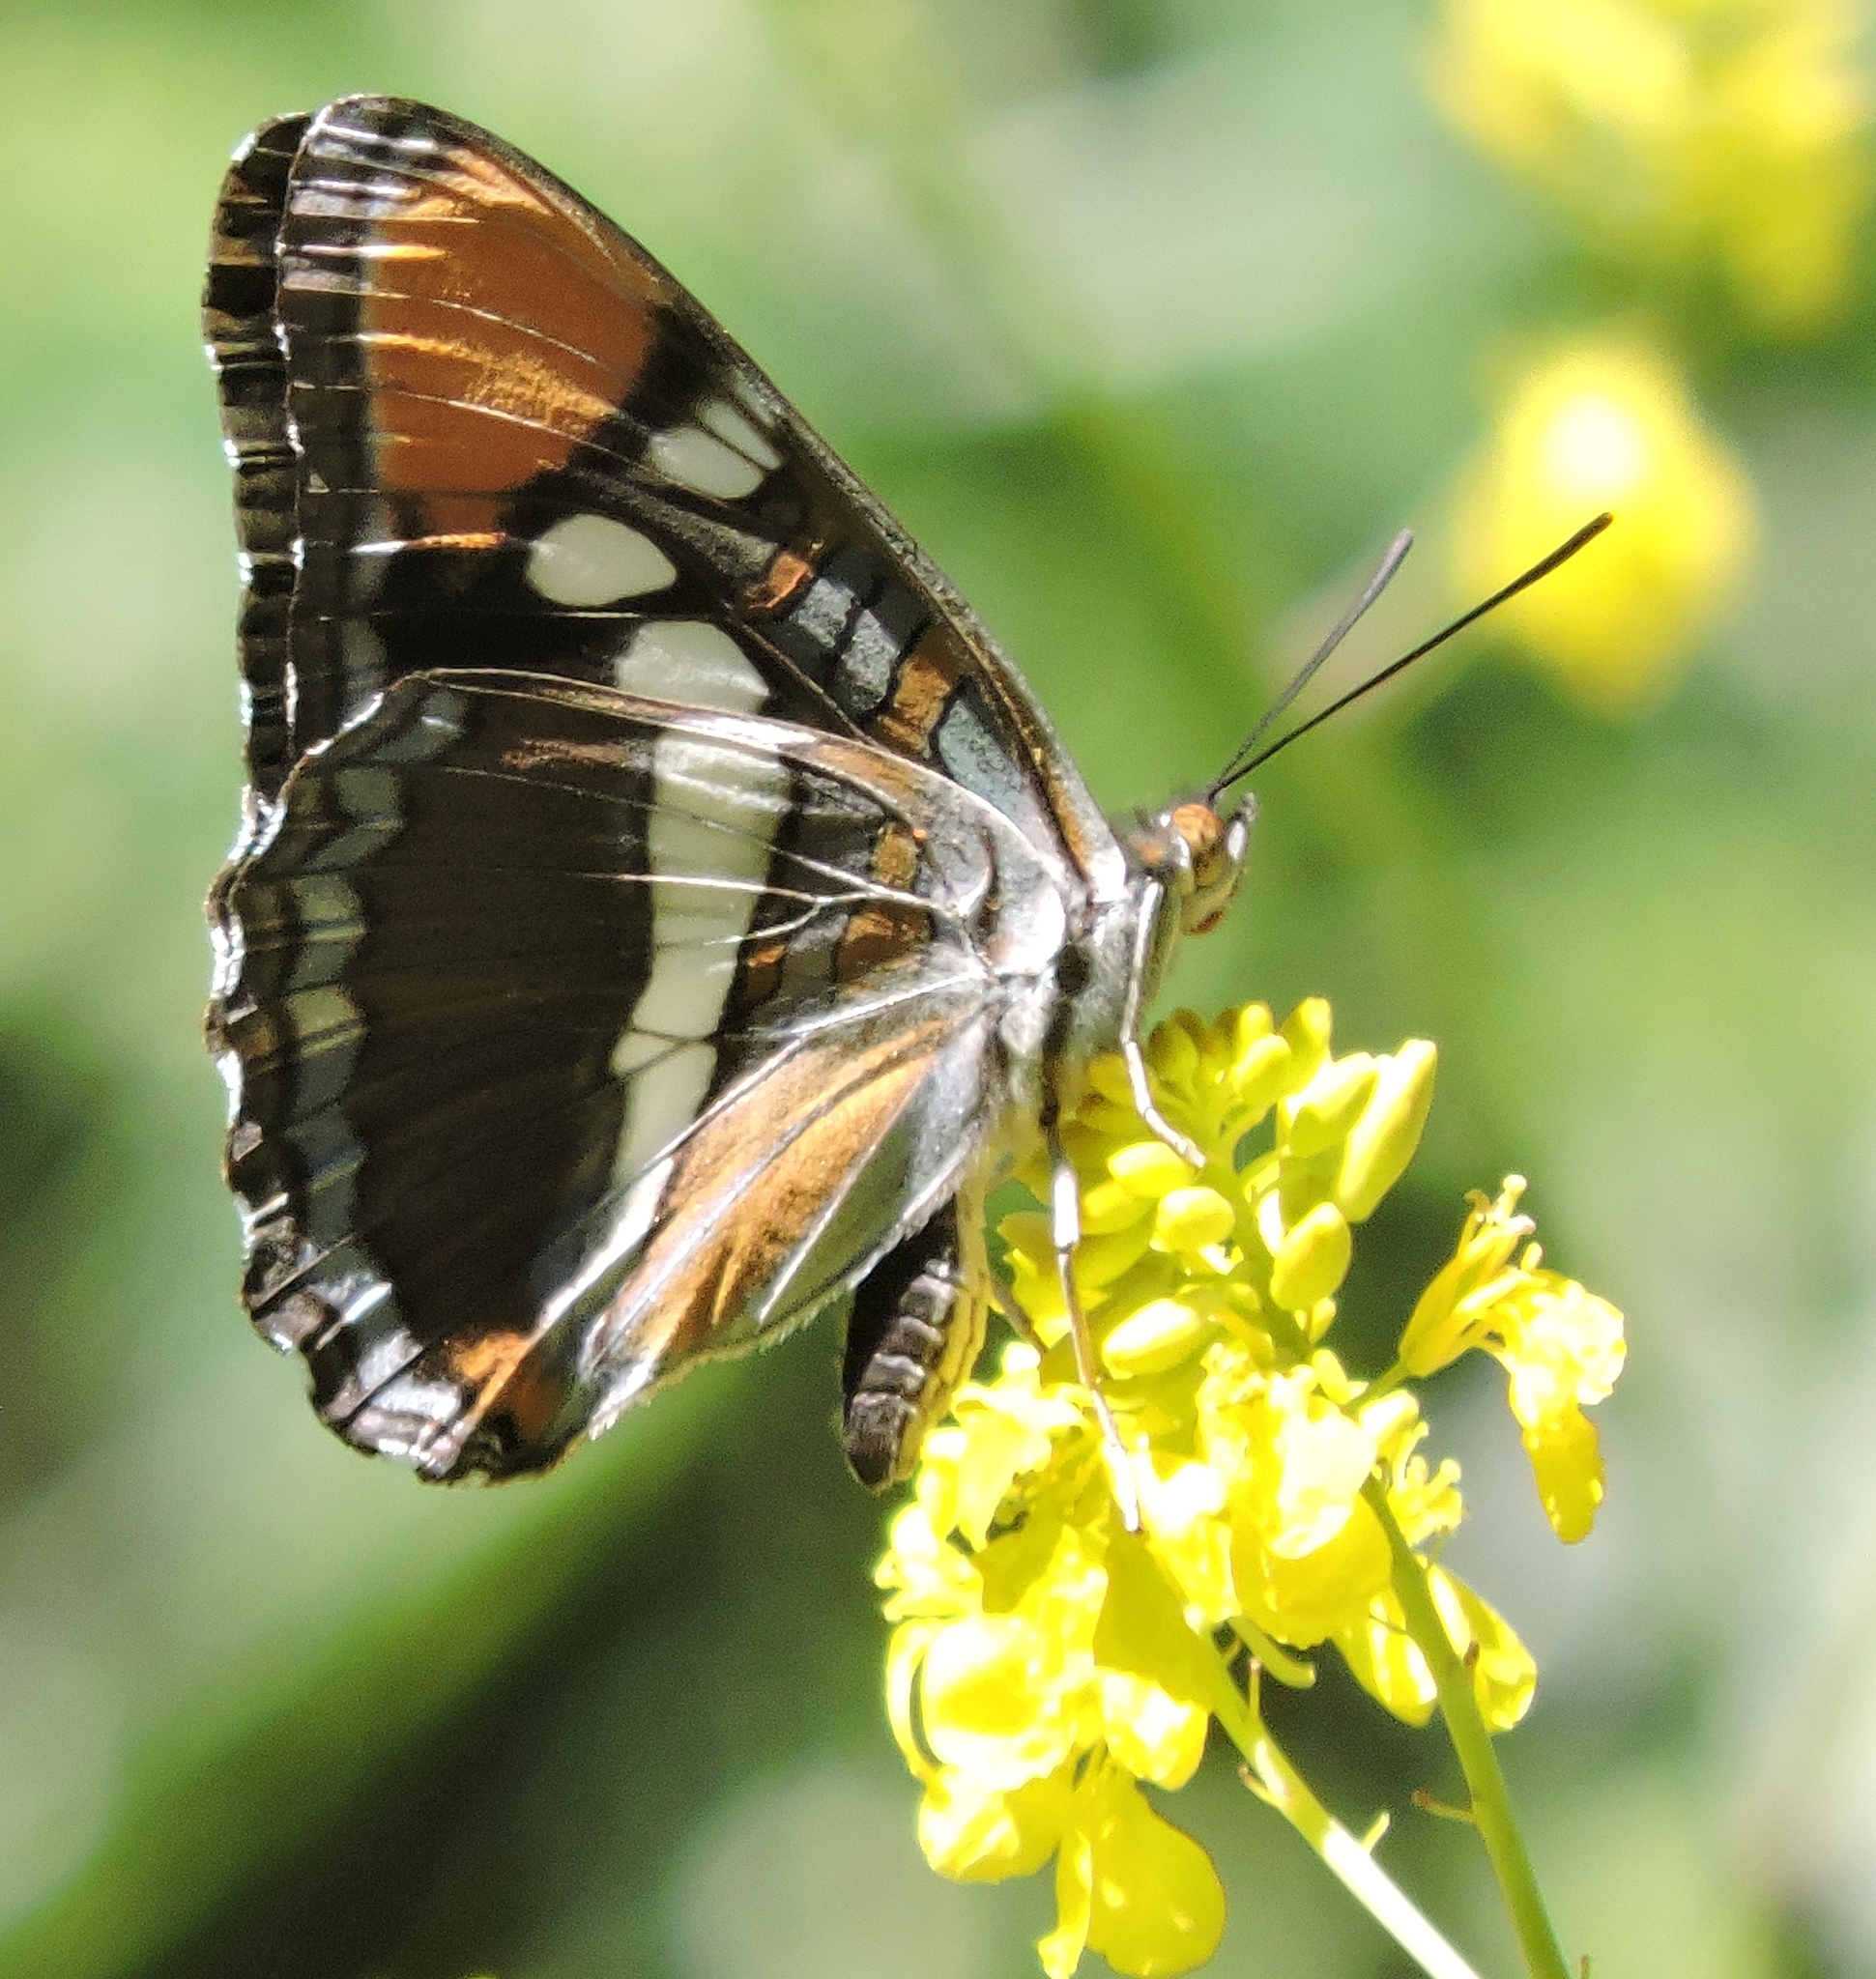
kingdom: Animalia
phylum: Arthropoda
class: Insecta
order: Lepidoptera
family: Nymphalidae
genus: Limenitis
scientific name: Limenitis bredowii
